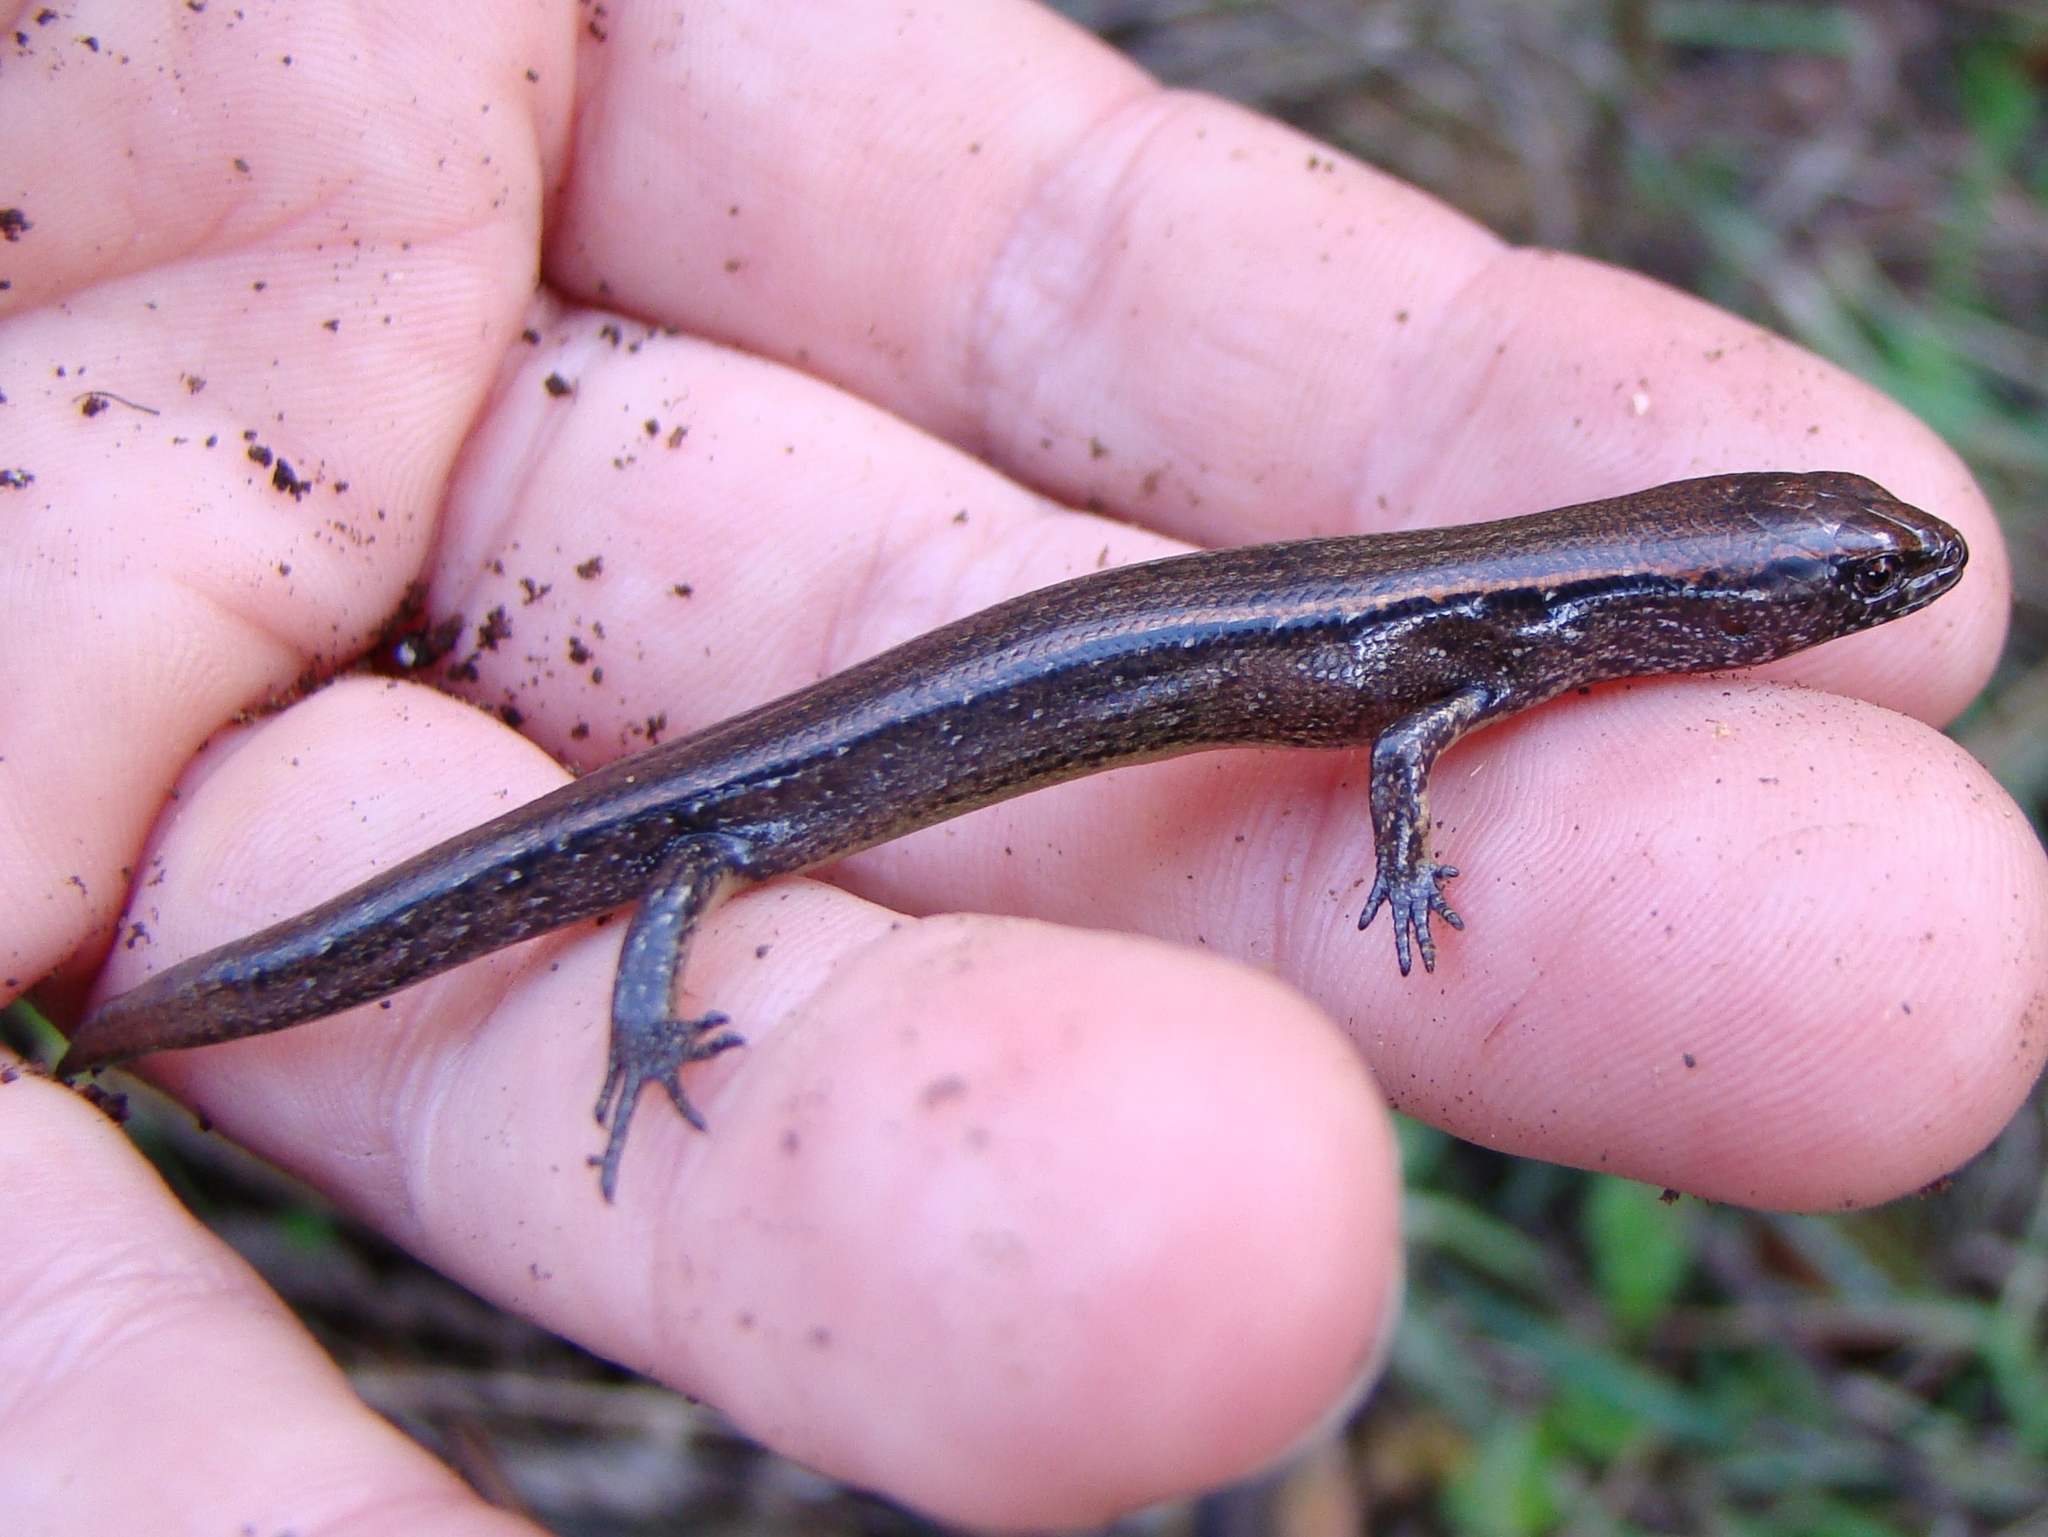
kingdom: Animalia
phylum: Chordata
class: Squamata
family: Scincidae
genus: Oligosoma
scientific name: Oligosoma aeneum
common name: Copper skink
